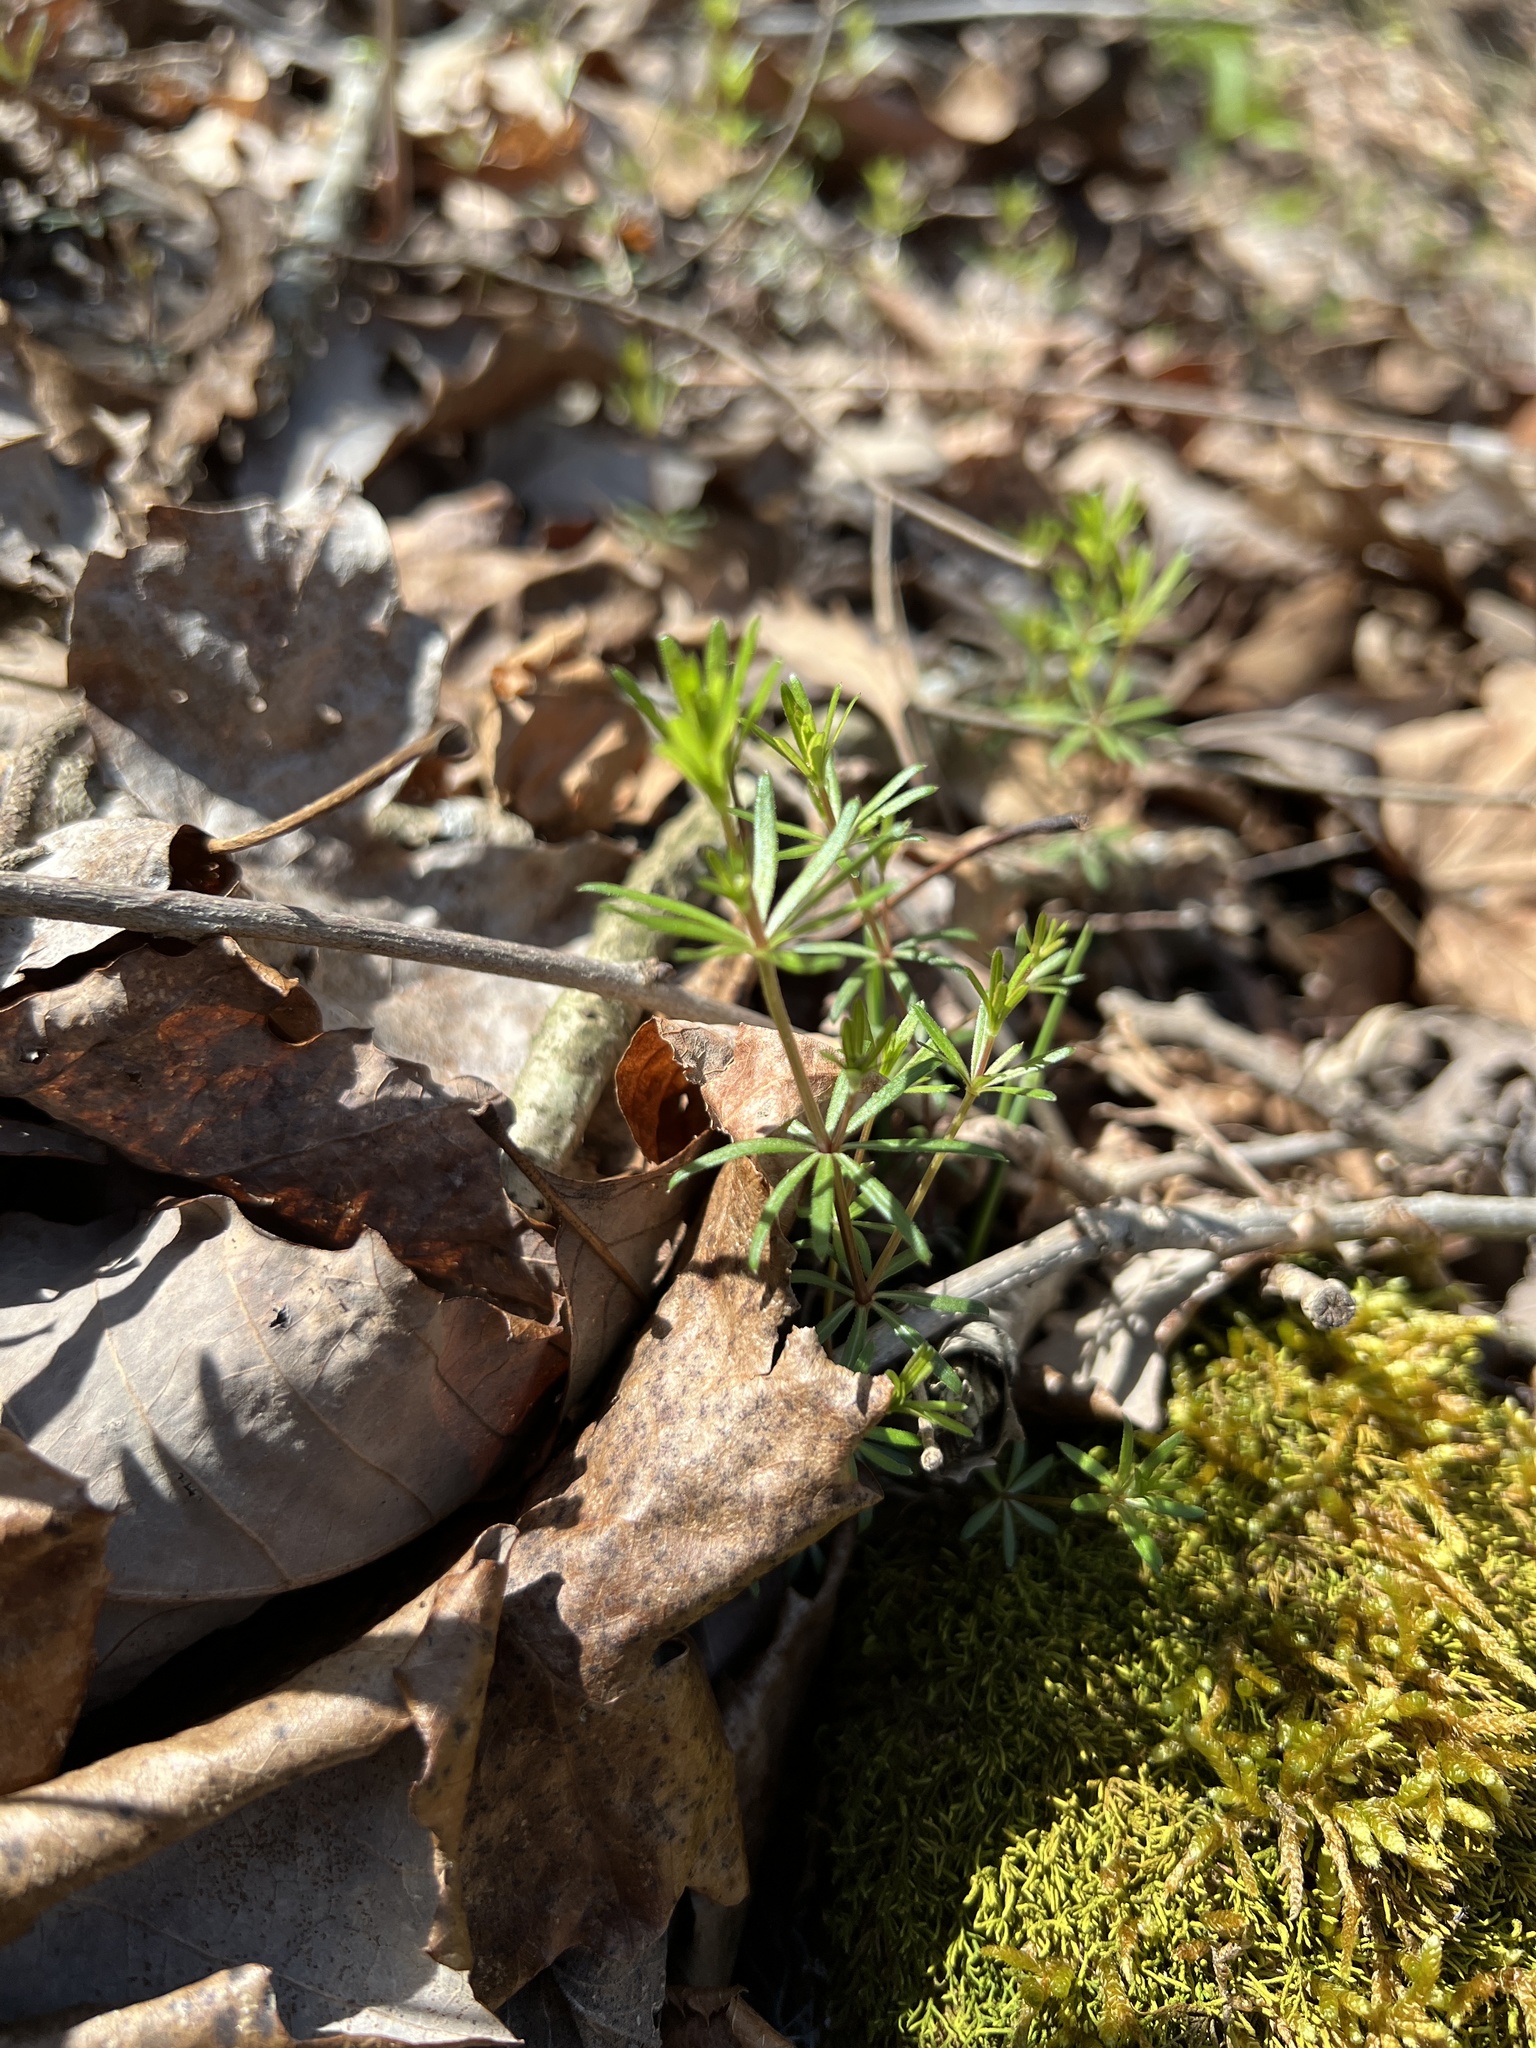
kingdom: Plantae
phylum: Tracheophyta
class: Magnoliopsida
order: Gentianales
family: Rubiaceae
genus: Galium
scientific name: Galium concinnum
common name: Shining bedstraw
